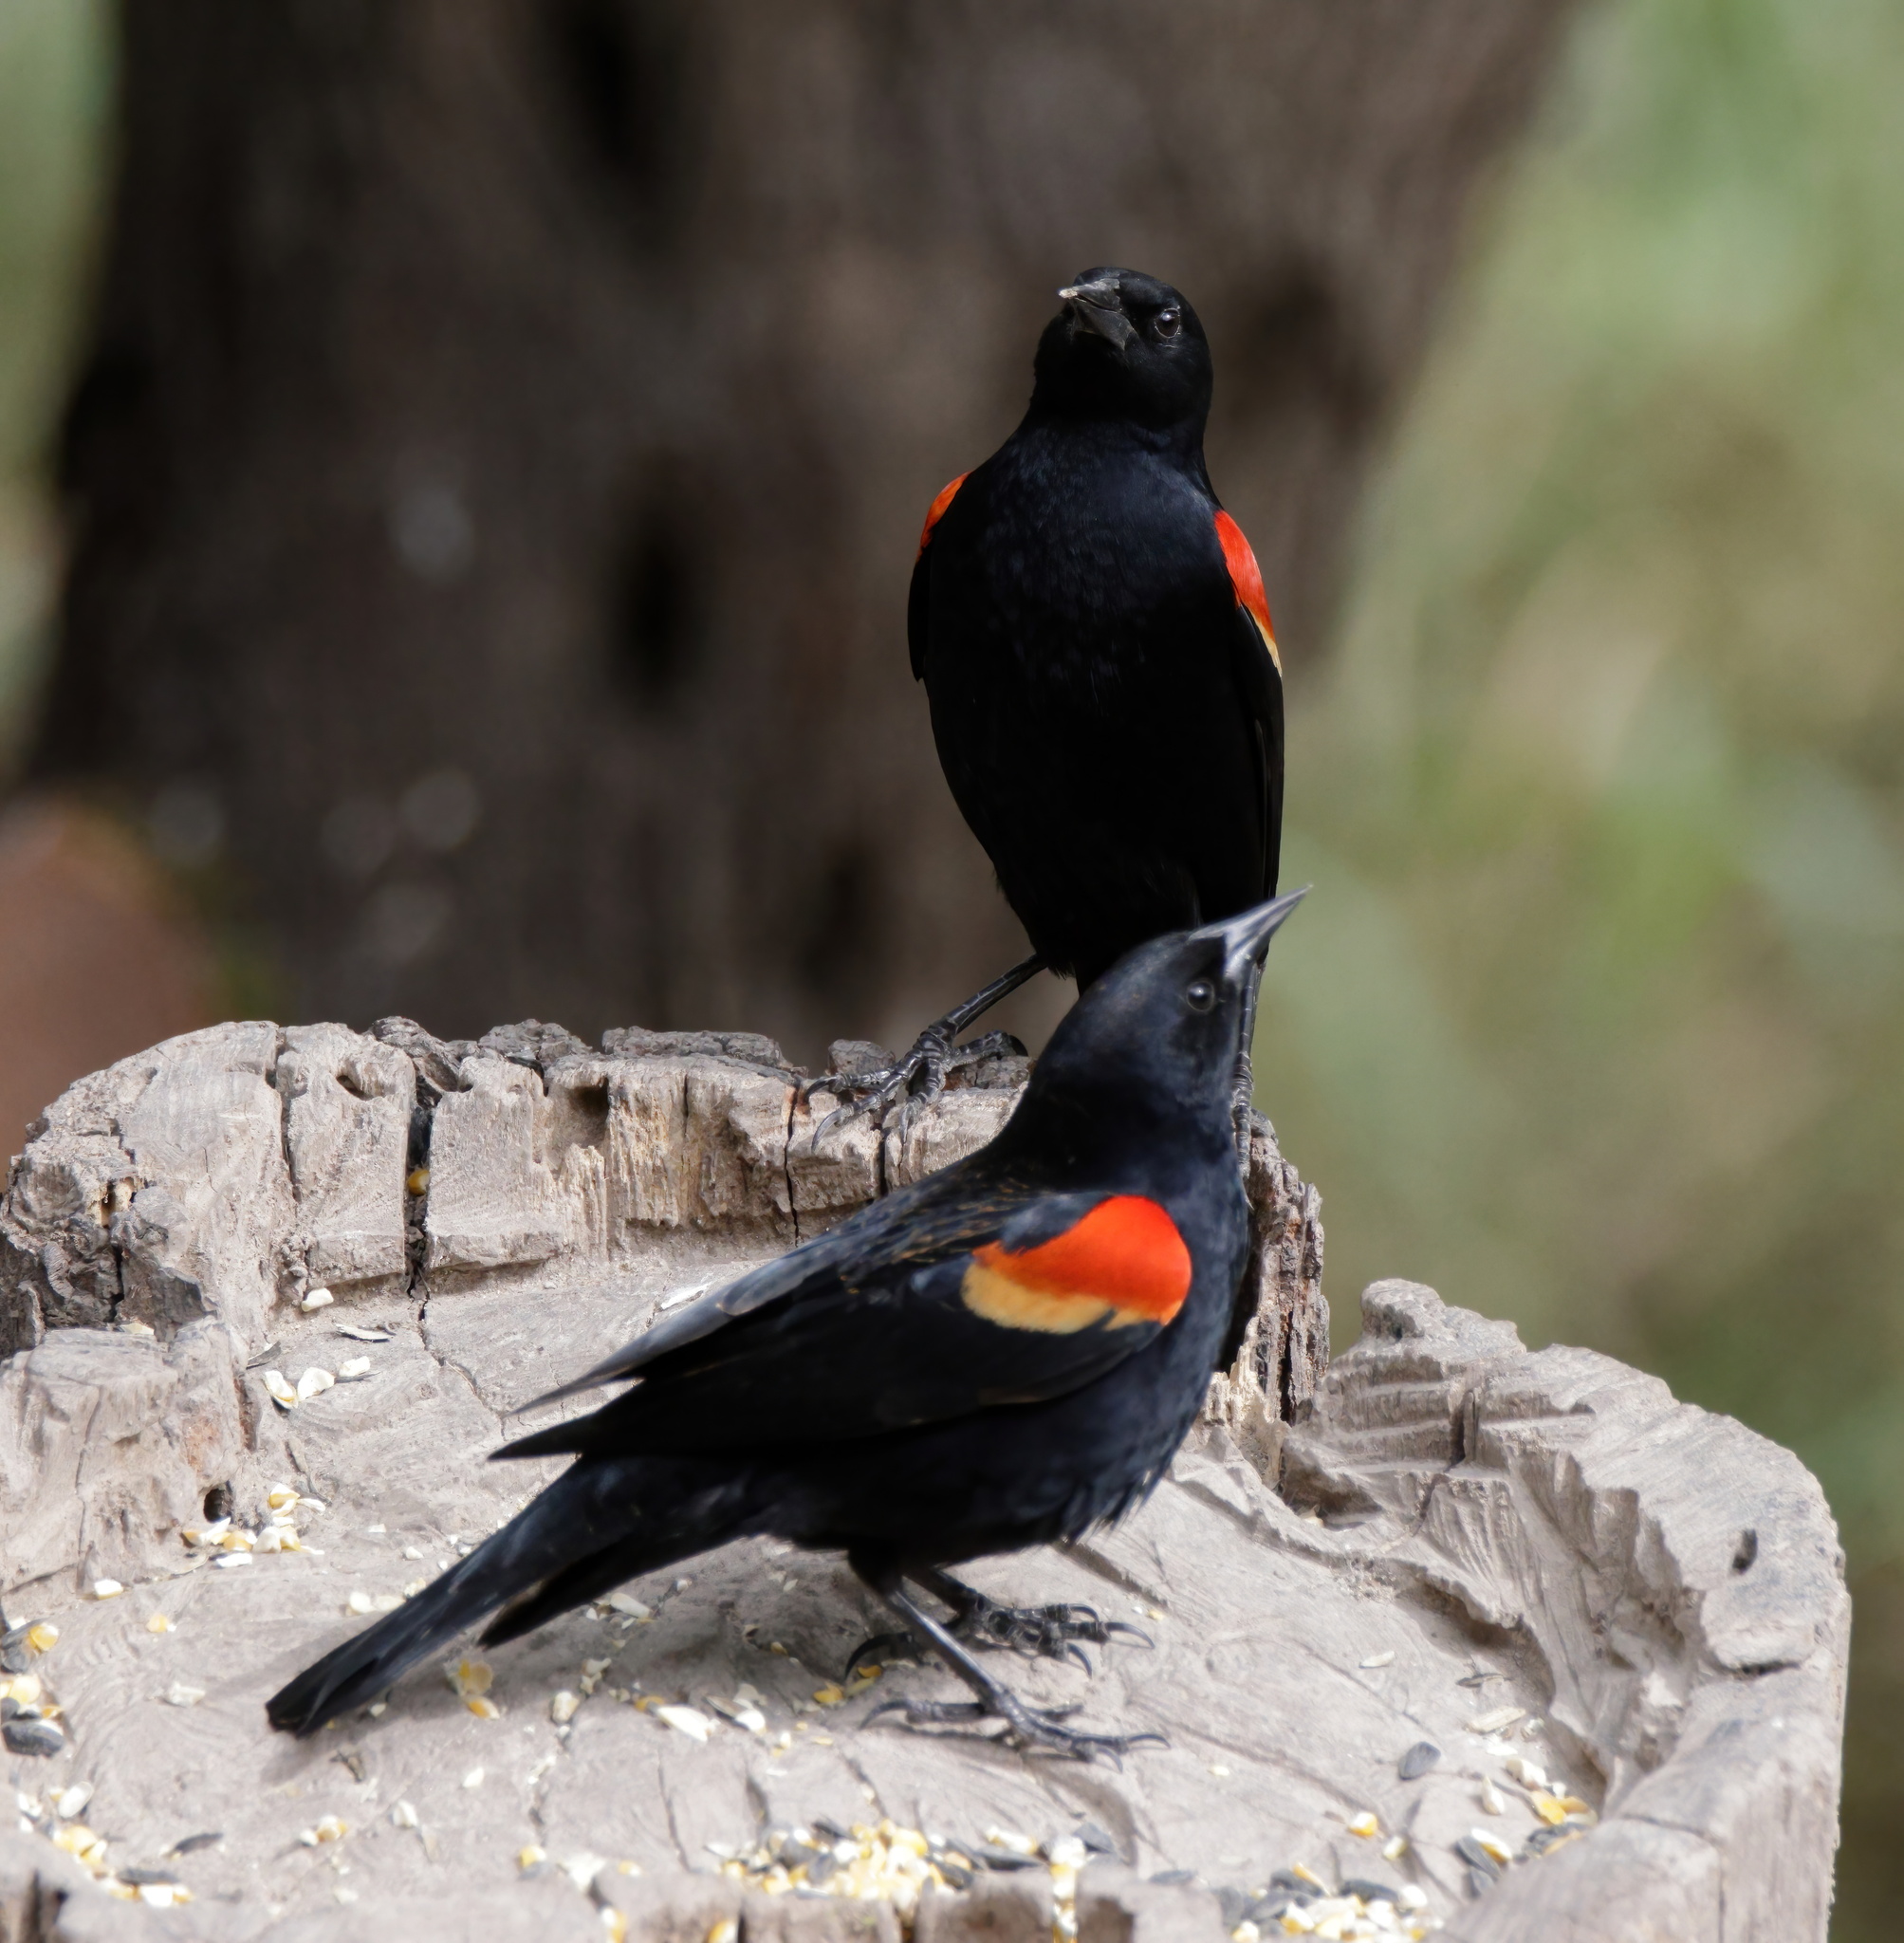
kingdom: Animalia
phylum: Chordata
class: Aves
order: Passeriformes
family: Icteridae
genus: Agelaius
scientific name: Agelaius phoeniceus
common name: Red-winged blackbird
